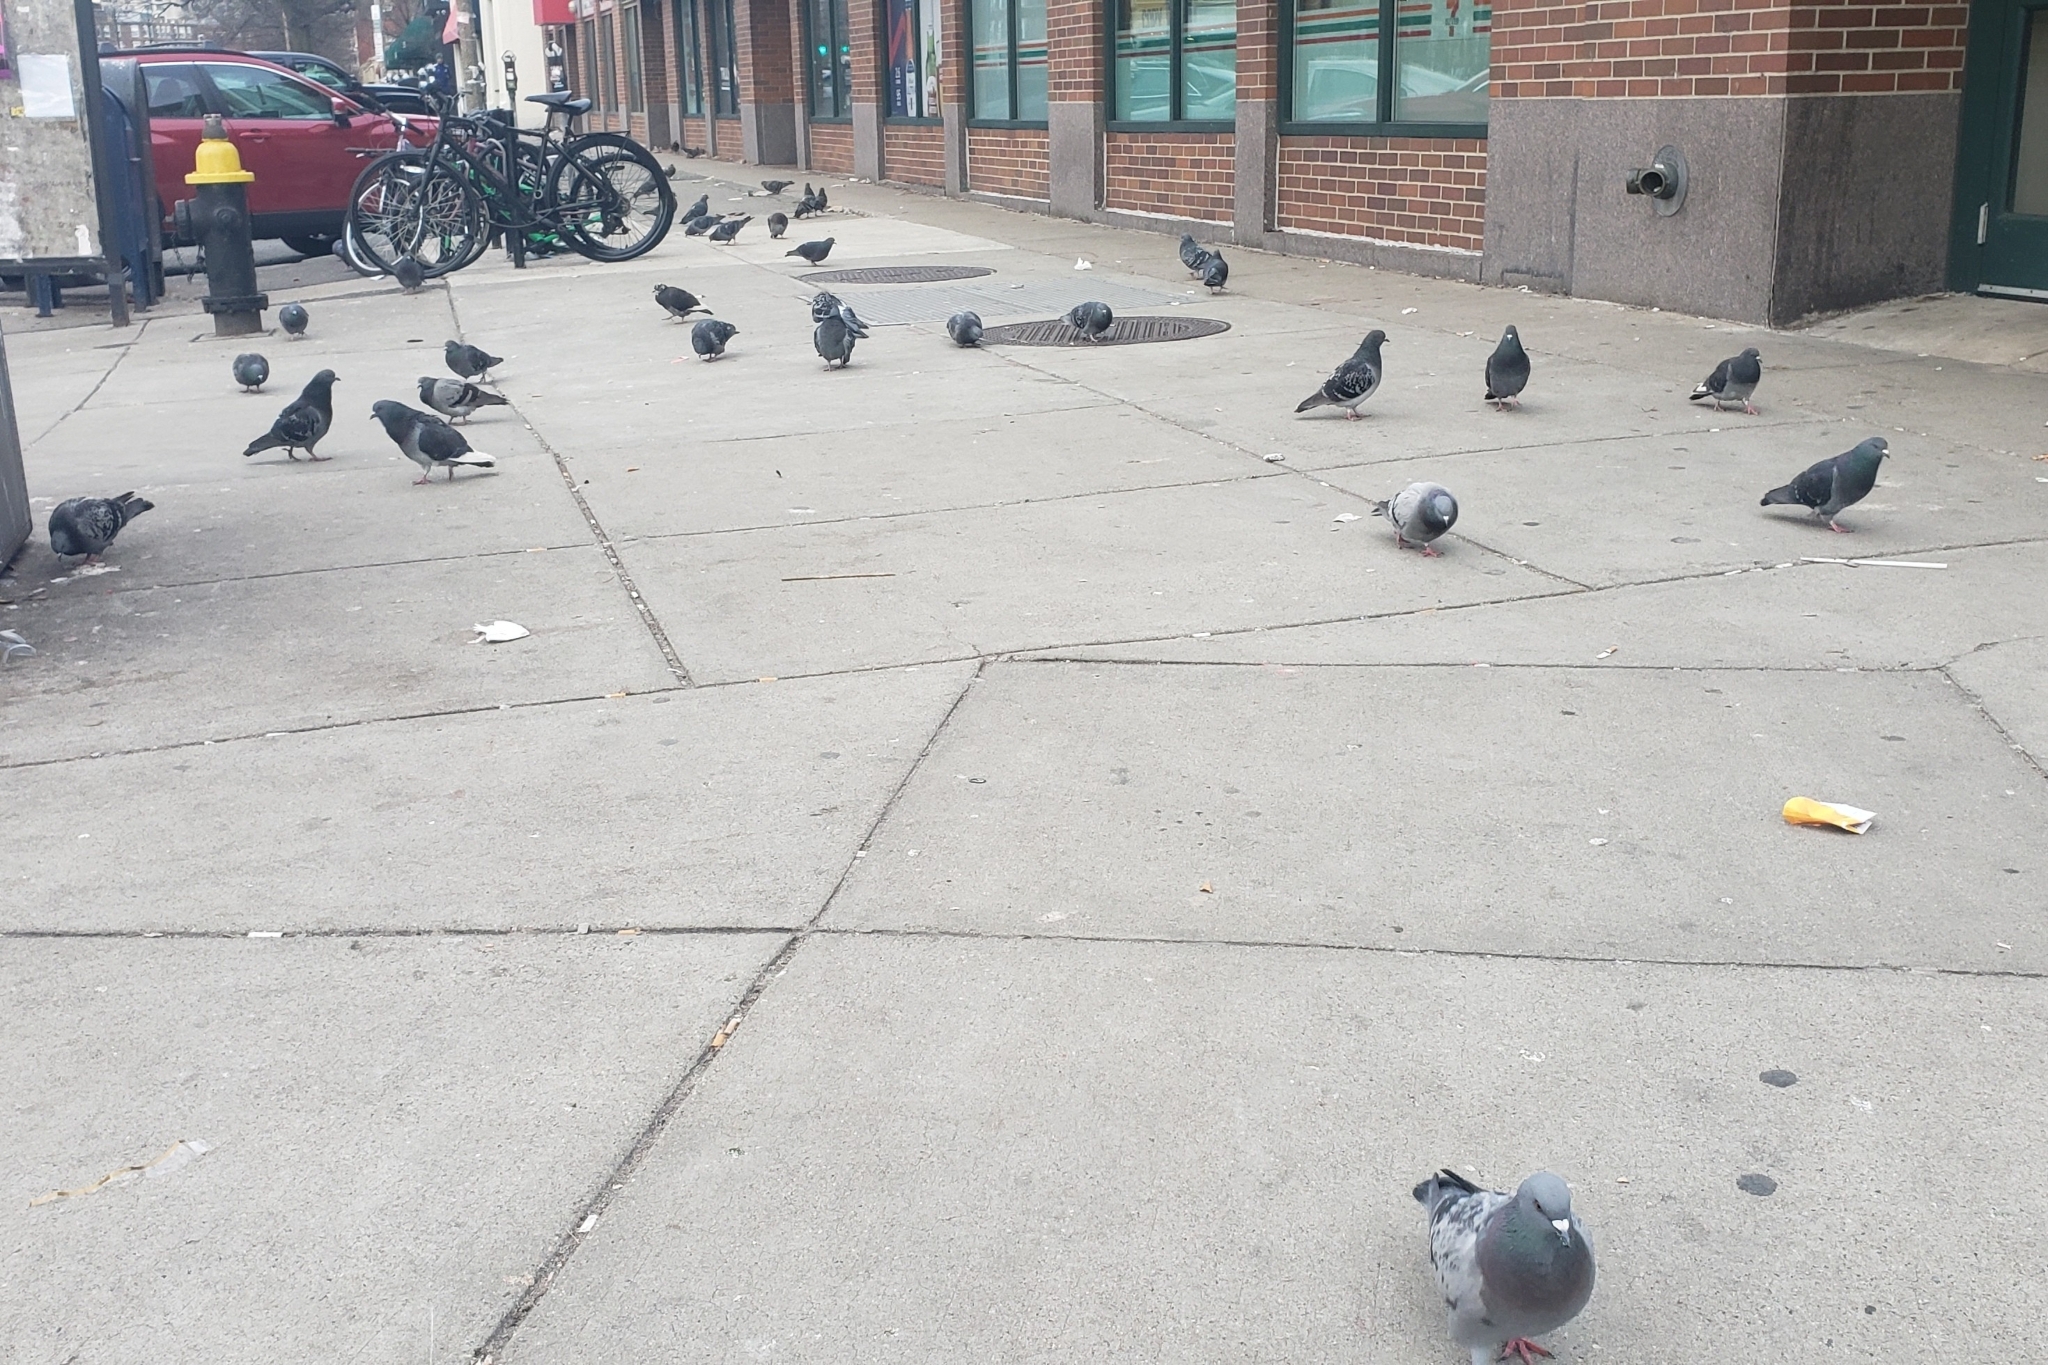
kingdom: Animalia
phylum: Chordata
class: Aves
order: Columbiformes
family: Columbidae
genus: Columba
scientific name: Columba livia
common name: Rock pigeon
